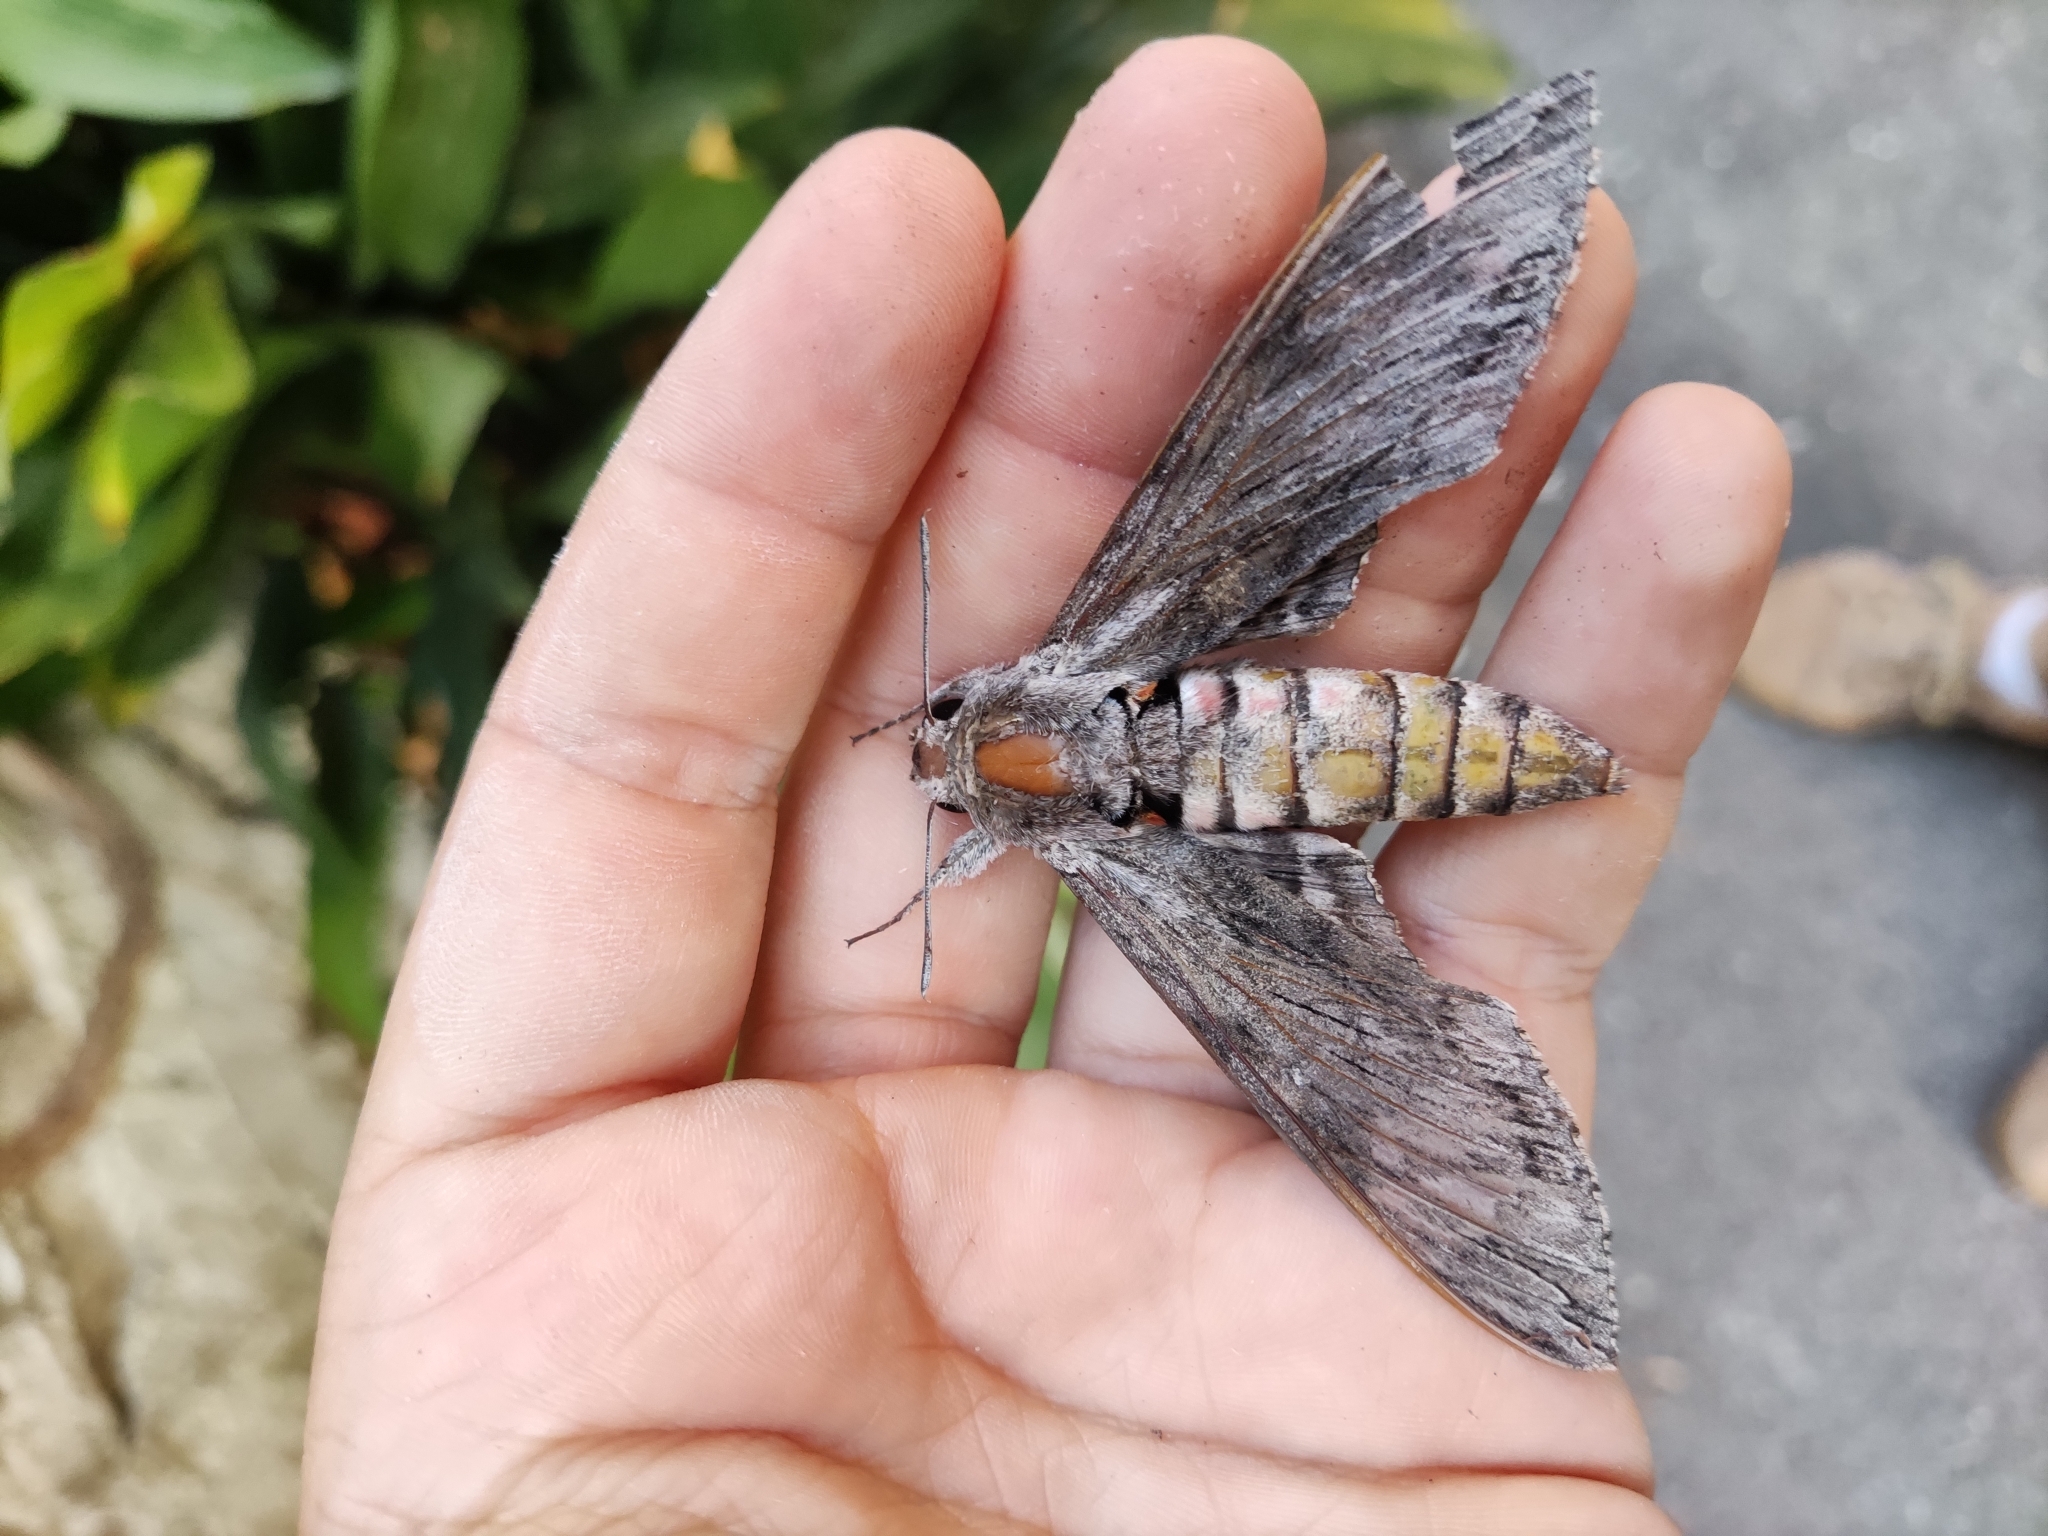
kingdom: Animalia
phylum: Arthropoda
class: Insecta
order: Lepidoptera
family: Sphingidae
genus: Agrius
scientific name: Agrius convolvuli
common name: Convolvulus hawkmoth
